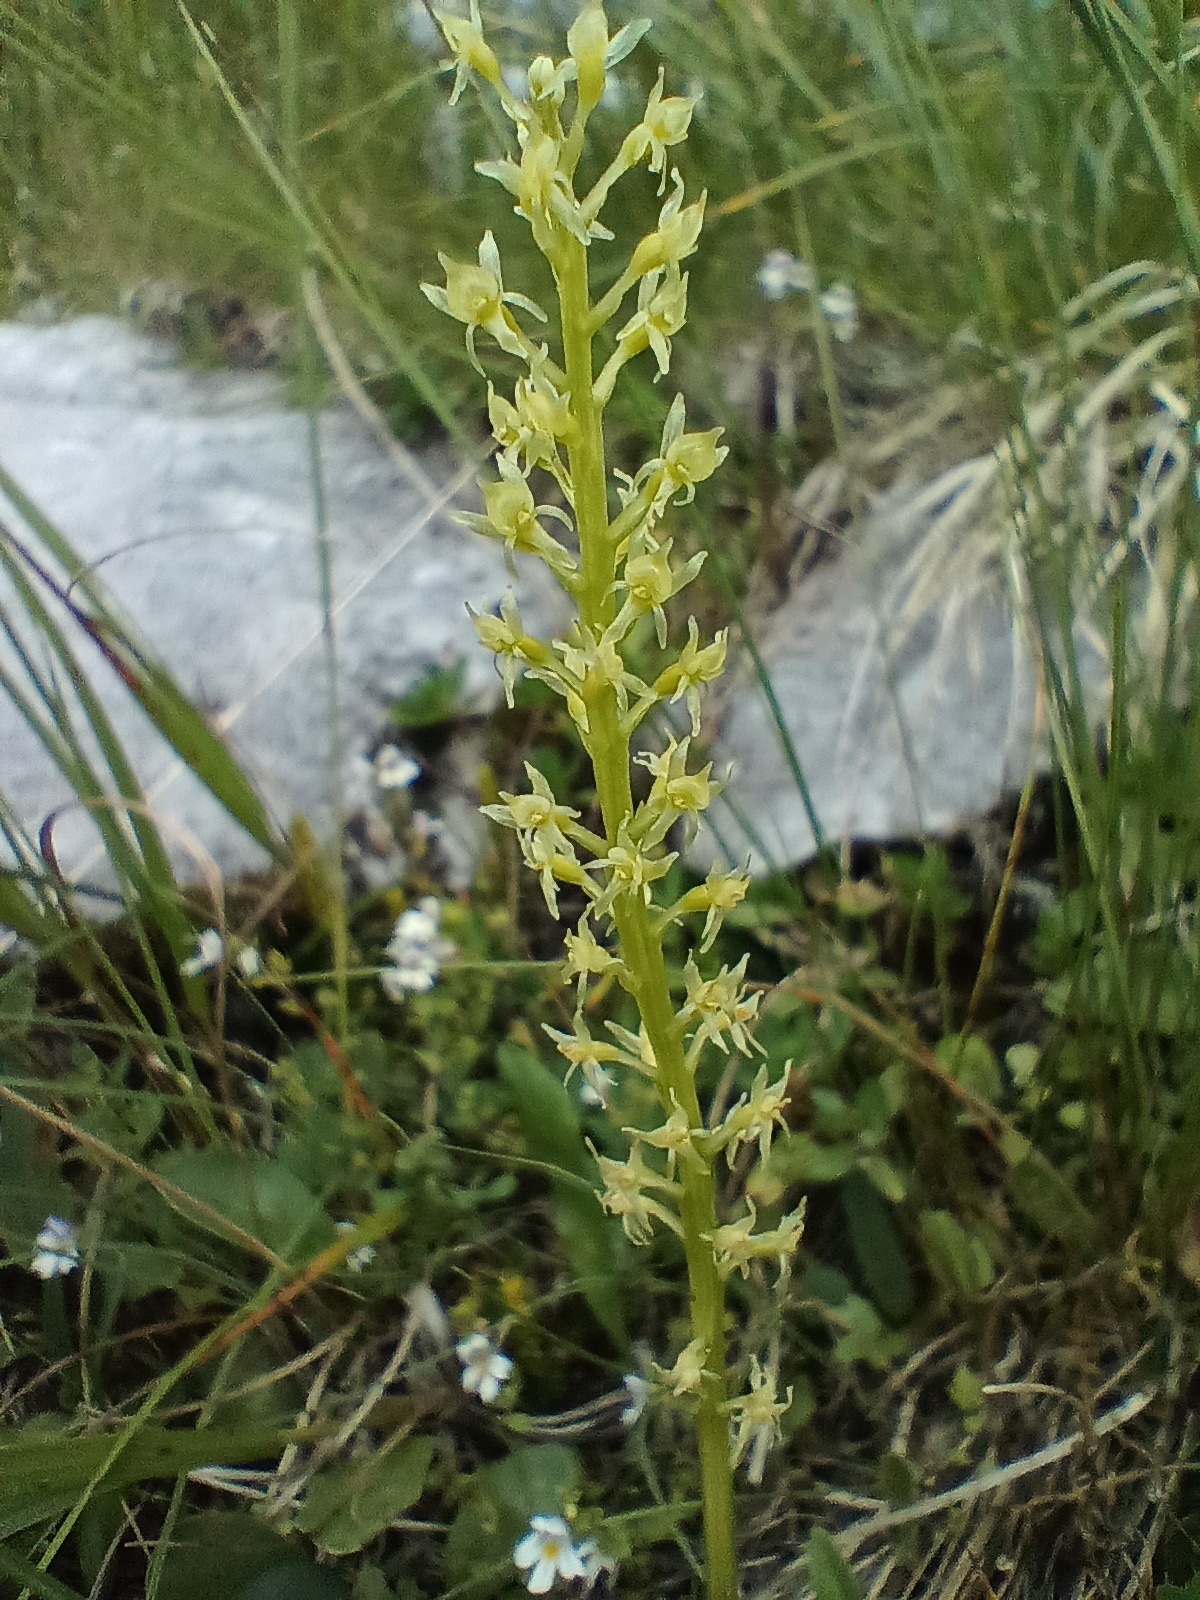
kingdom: Plantae
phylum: Tracheophyta
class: Liliopsida
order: Asparagales
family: Orchidaceae
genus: Malaxis
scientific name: Malaxis monophyllos
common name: White adder's-mouth
